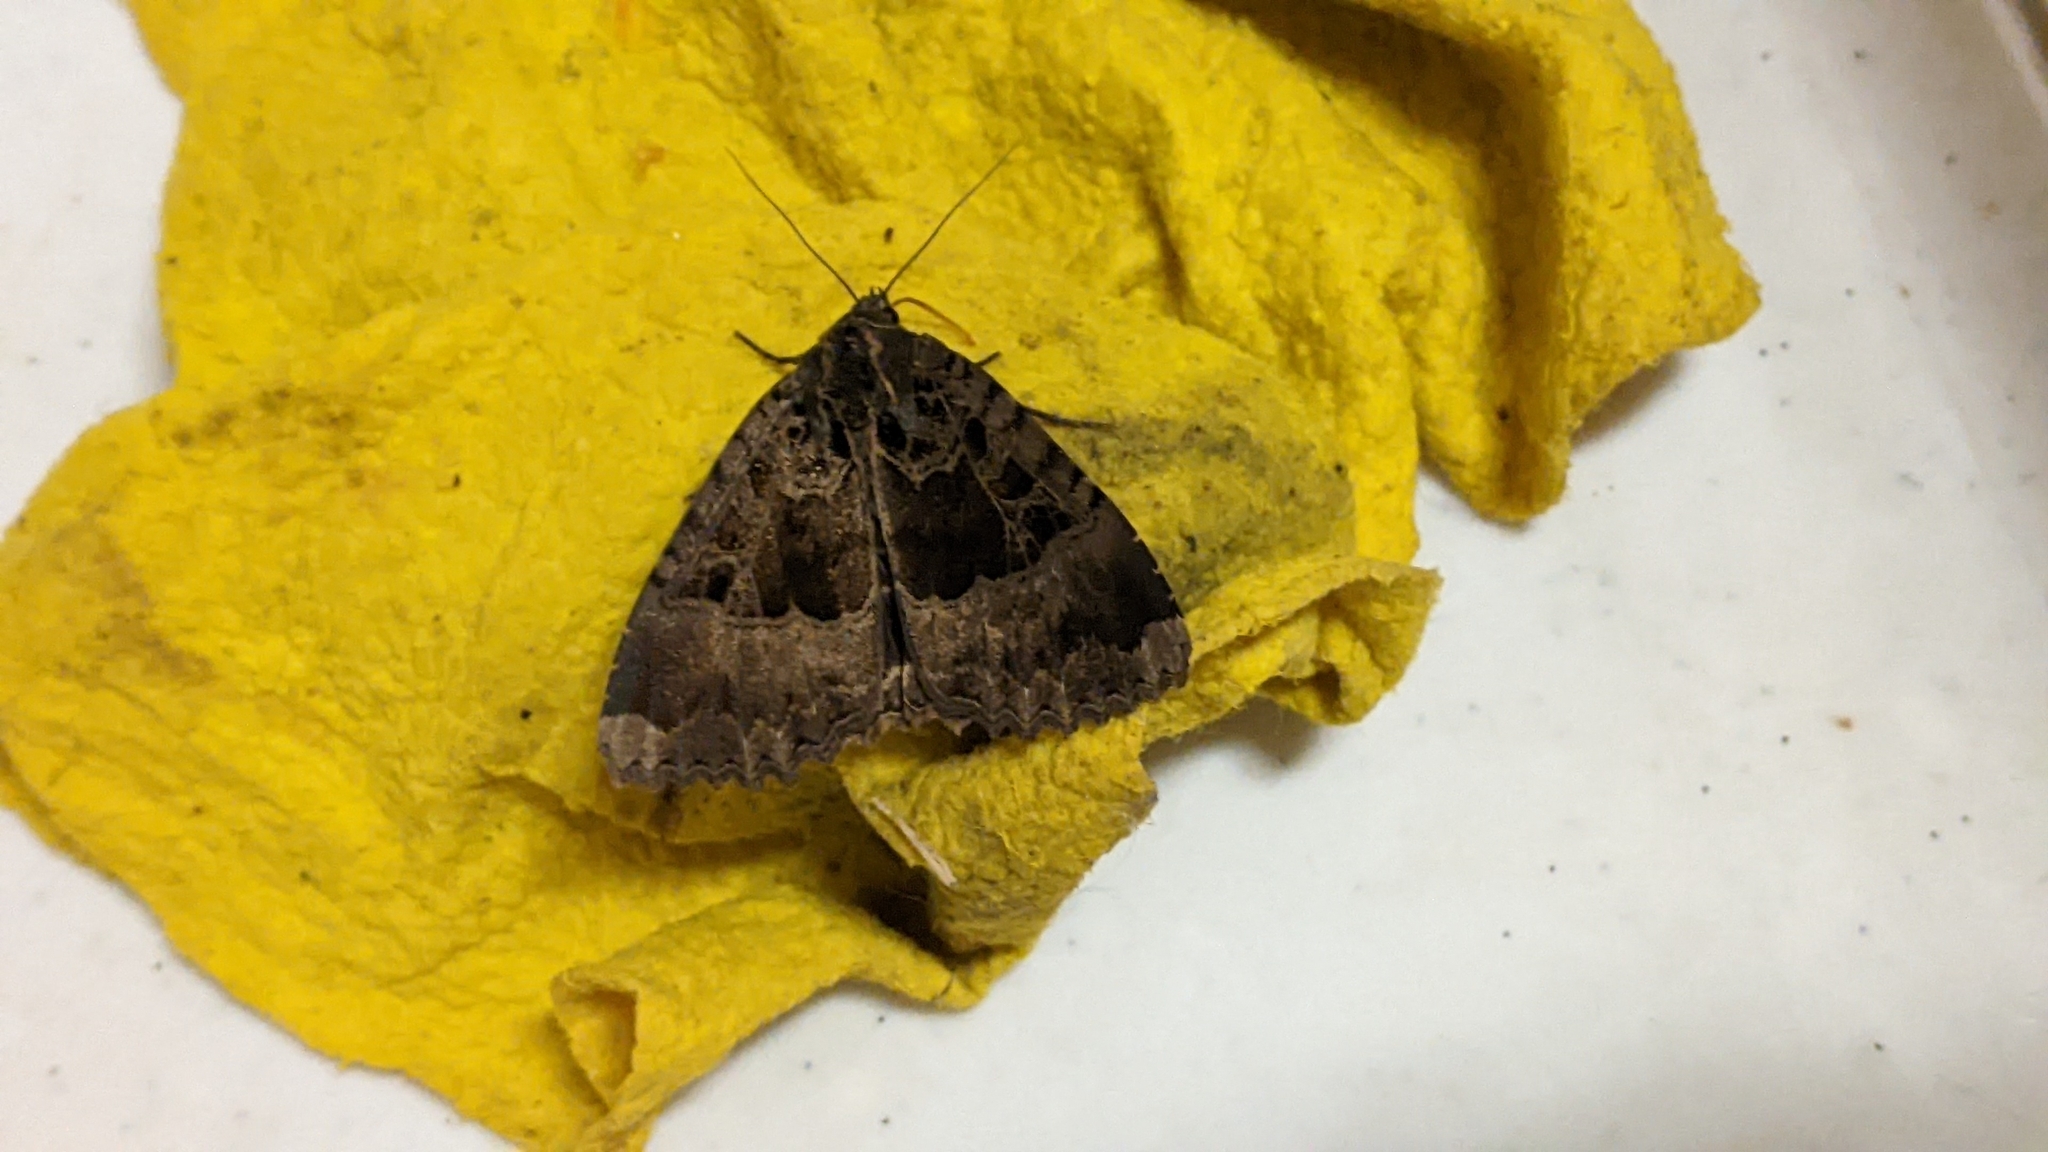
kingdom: Animalia
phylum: Arthropoda
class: Insecta
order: Lepidoptera
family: Noctuidae
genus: Mormo
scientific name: Mormo maura
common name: Old lady
